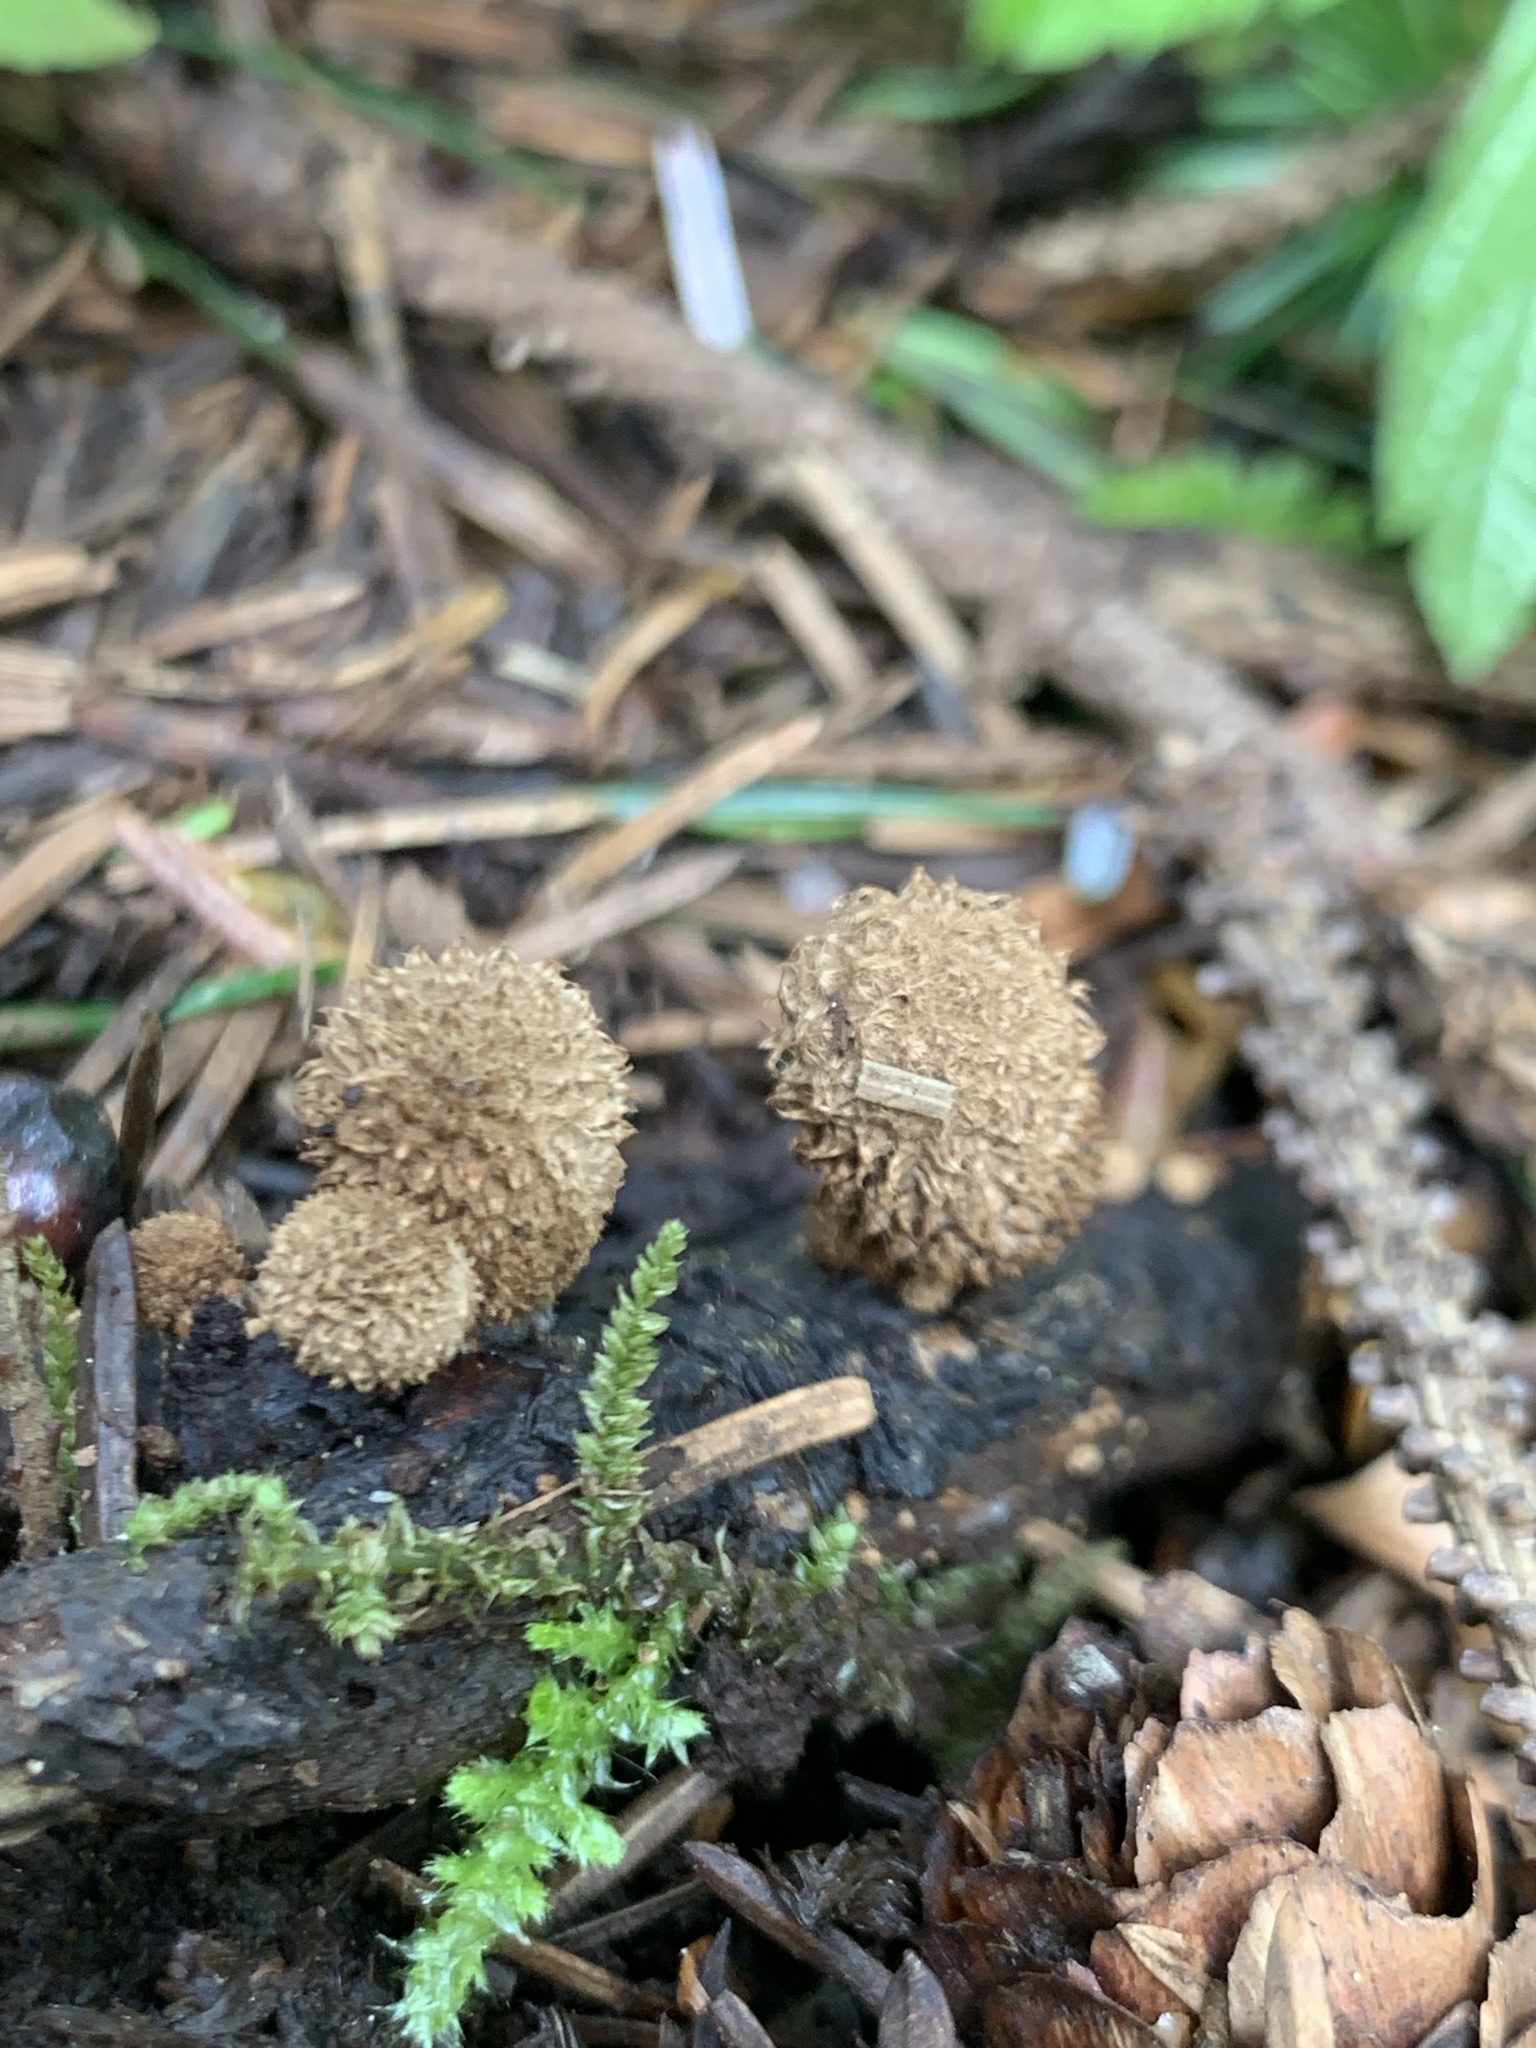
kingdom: Fungi
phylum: Basidiomycota
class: Agaricomycetes
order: Agaricales
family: Agaricaceae
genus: Cyathus
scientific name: Cyathus striatus
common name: Fluted bird's nest
